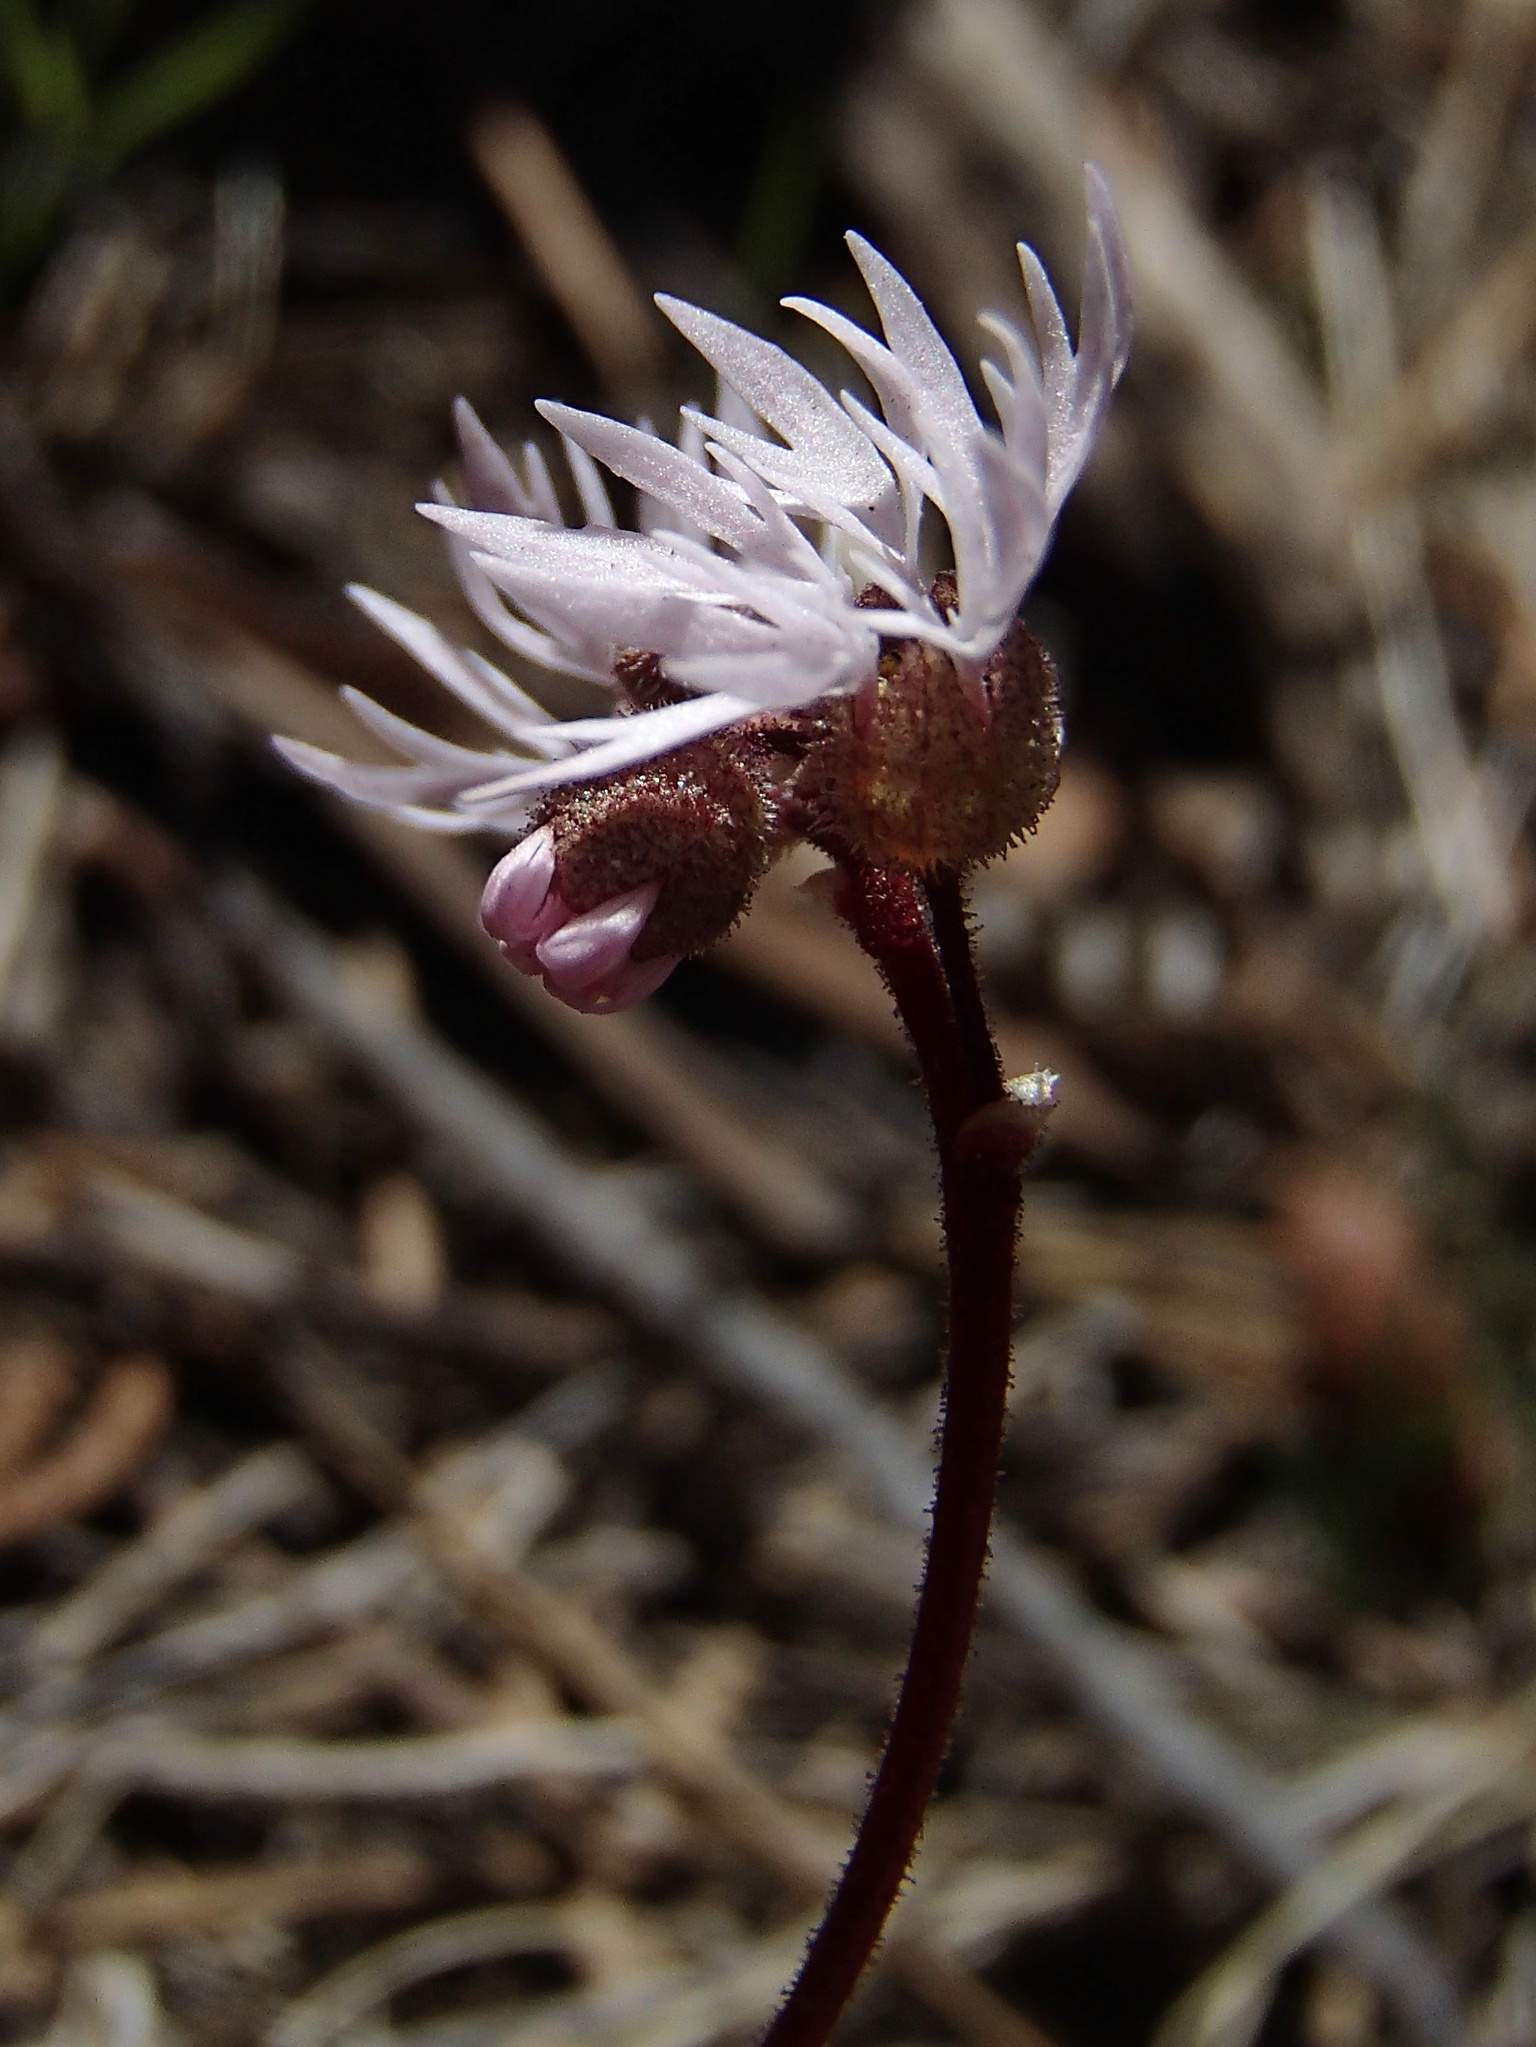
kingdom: Plantae
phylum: Tracheophyta
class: Magnoliopsida
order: Saxifragales
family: Saxifragaceae
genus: Lithophragma
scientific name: Lithophragma glabrum
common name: Bulbous prairie-star
